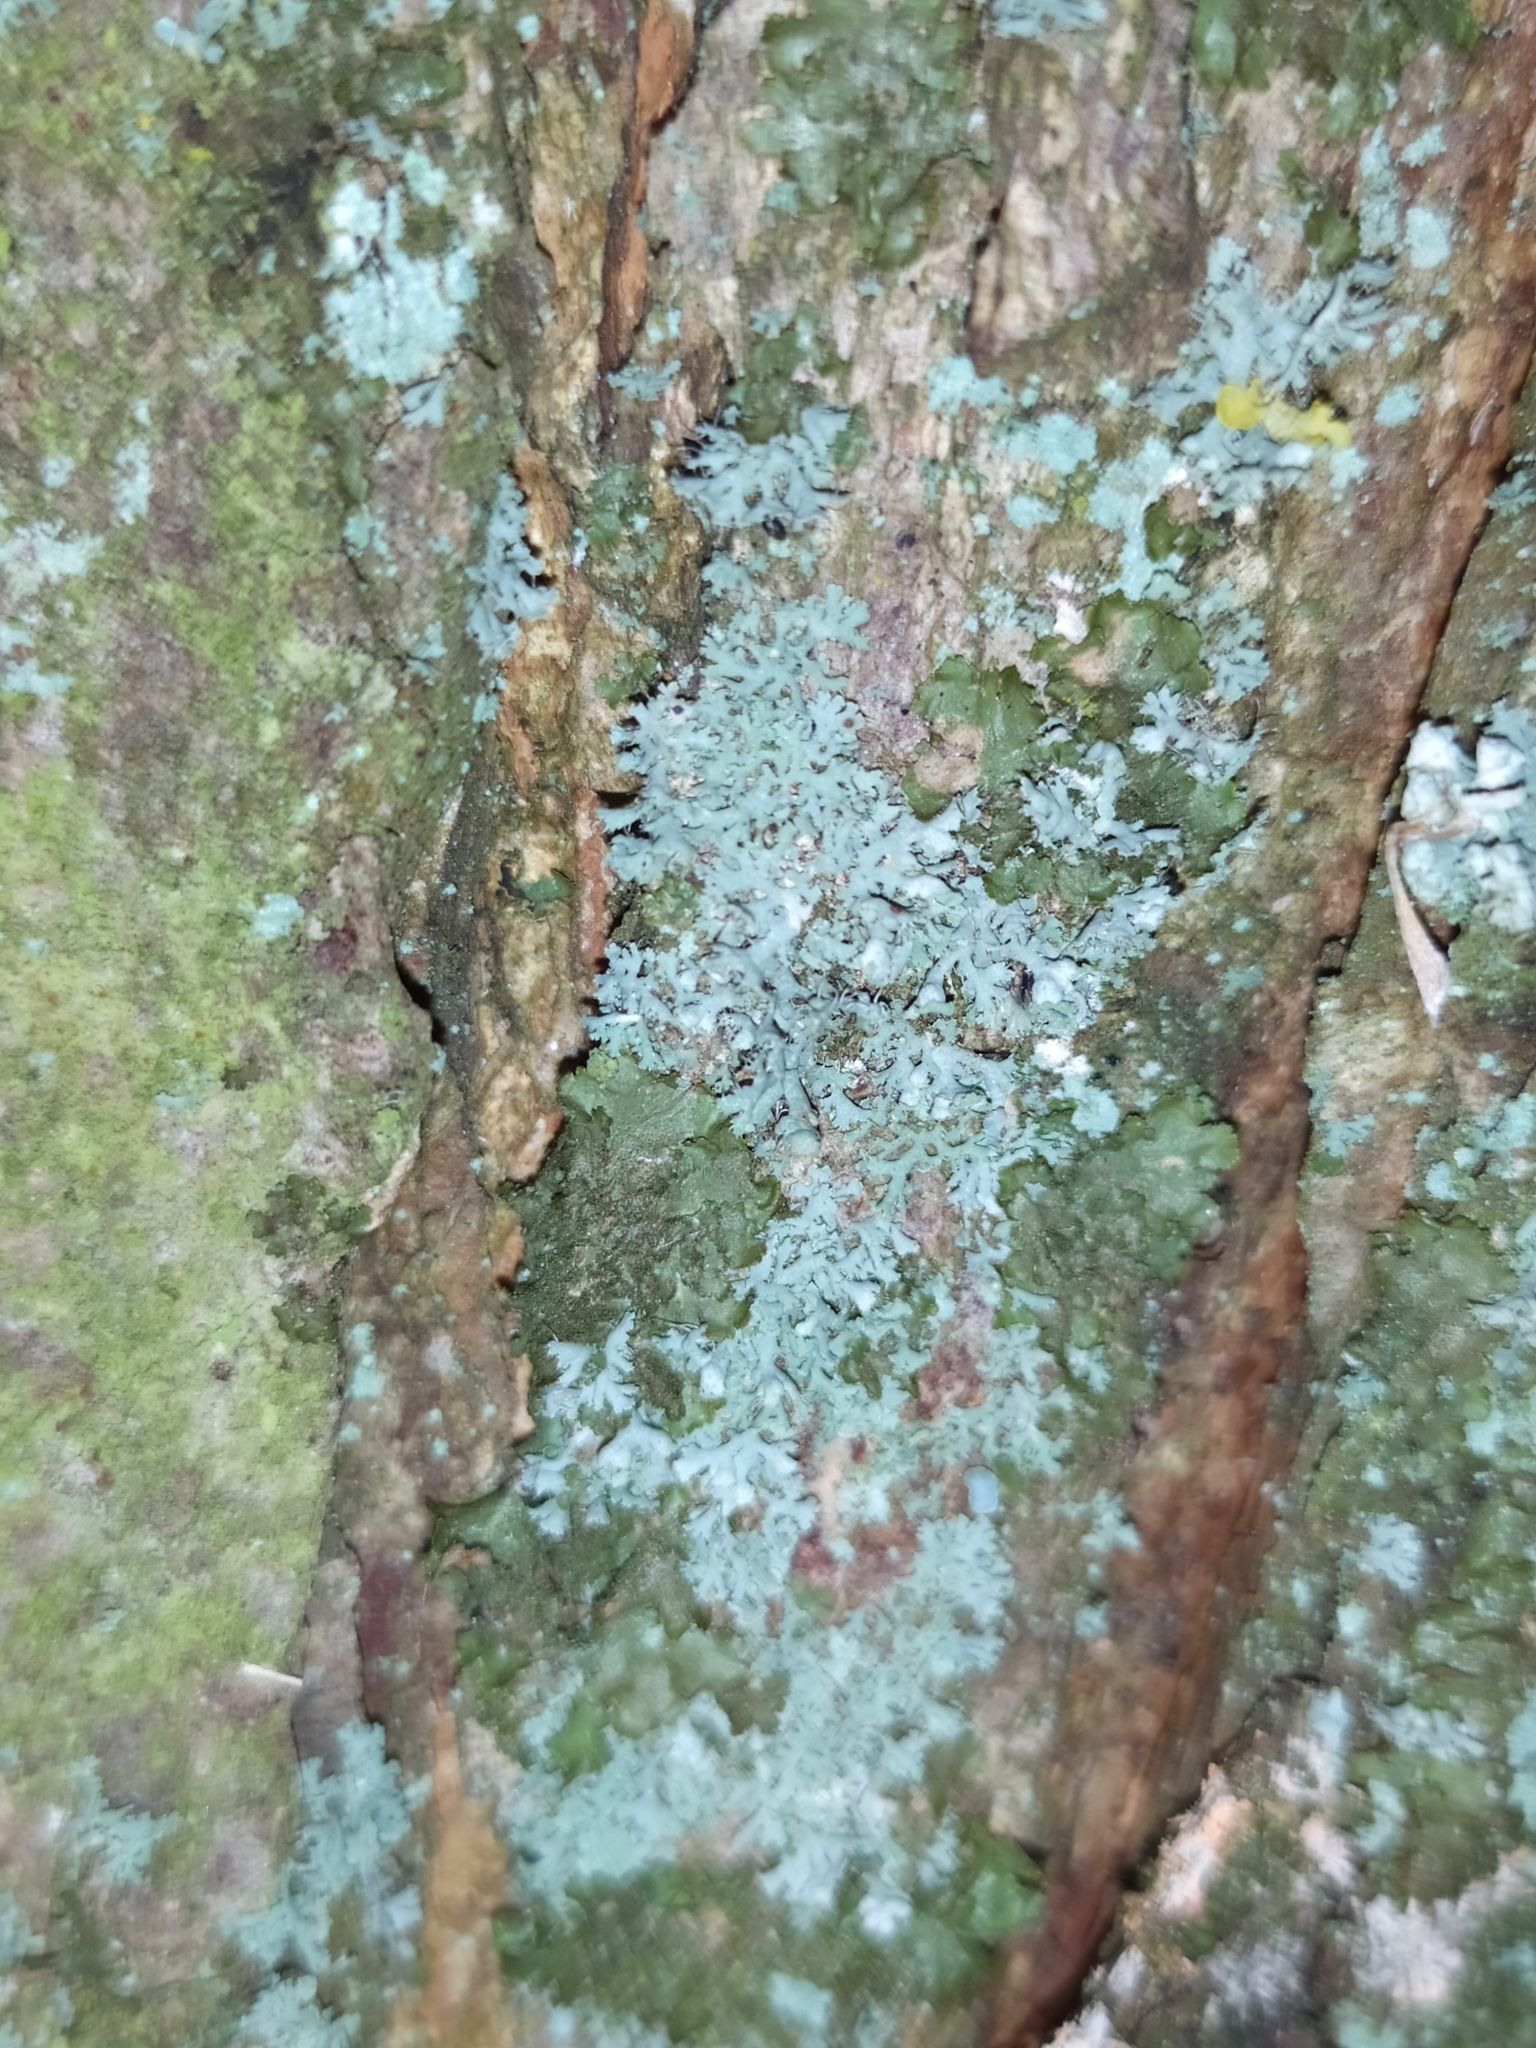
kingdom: Fungi
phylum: Ascomycota
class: Lecanoromycetes
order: Caliciales
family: Physciaceae
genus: Physcia
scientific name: Physcia tenella
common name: Fringed rosette lichen
